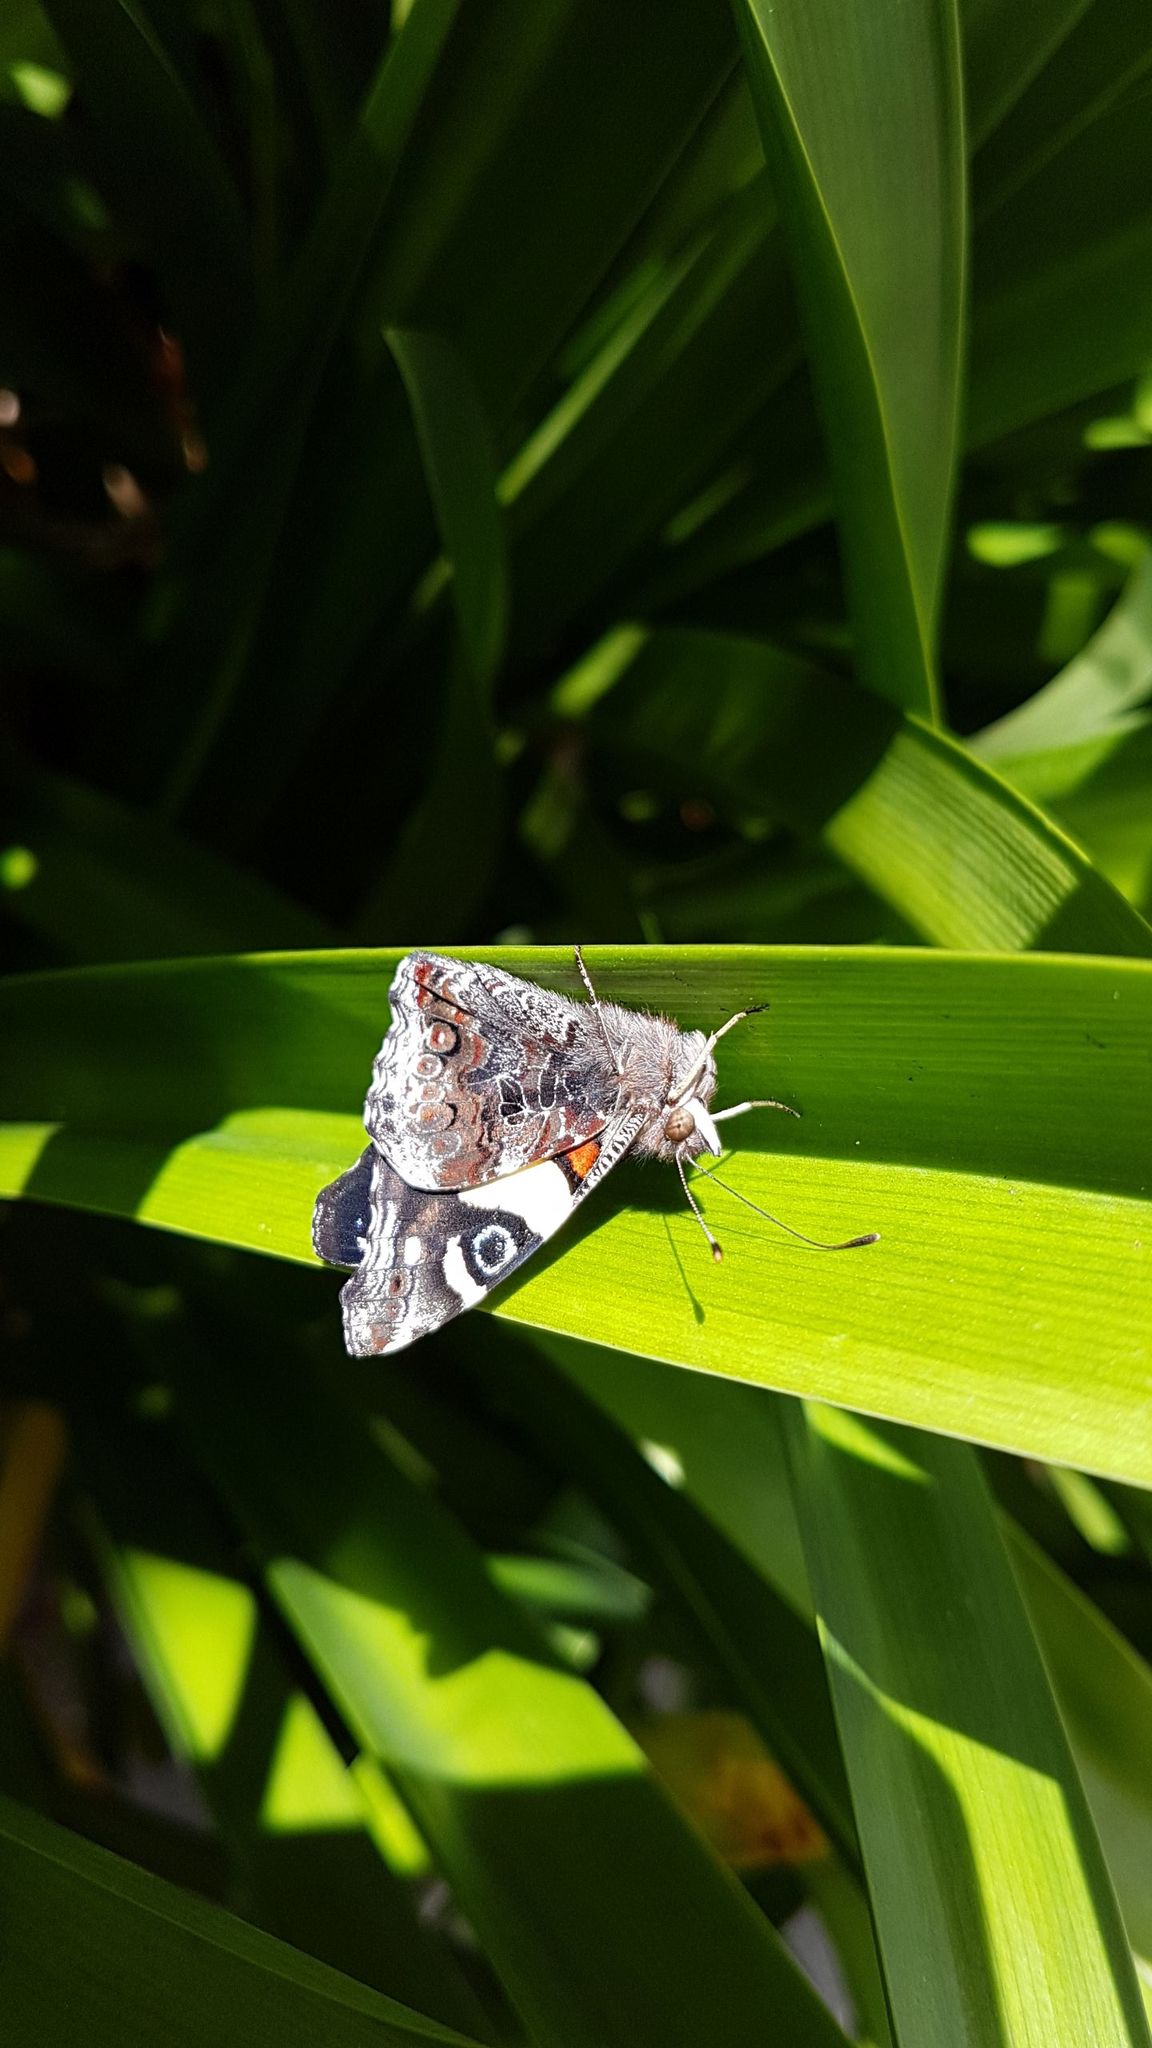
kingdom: Animalia
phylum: Arthropoda
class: Insecta
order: Lepidoptera
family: Nymphalidae
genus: Vanessa
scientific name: Vanessa itea
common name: Yellow admiral
